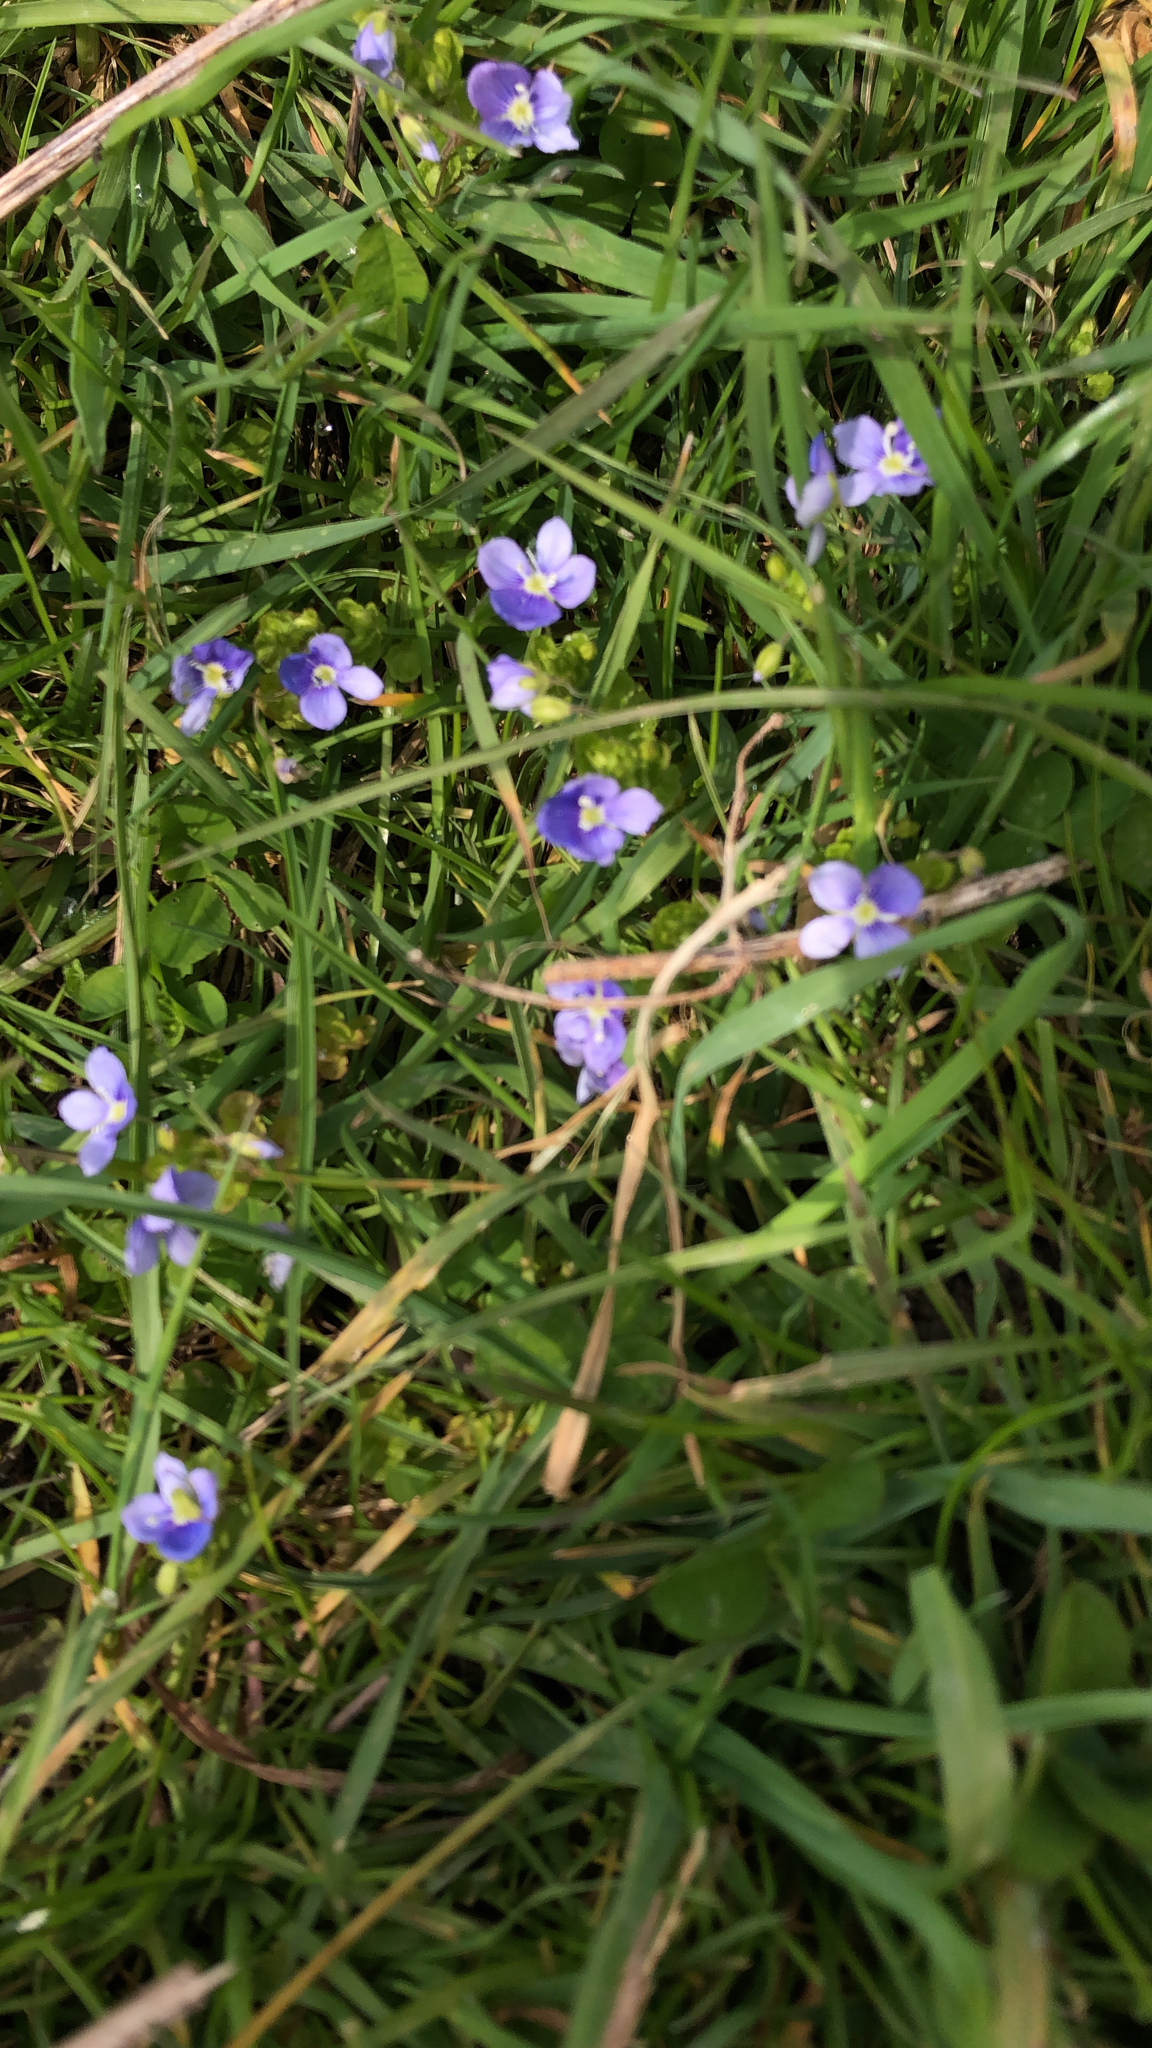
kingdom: Plantae
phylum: Tracheophyta
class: Magnoliopsida
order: Lamiales
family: Plantaginaceae
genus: Veronica
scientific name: Veronica filiformis
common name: Slender speedwell
